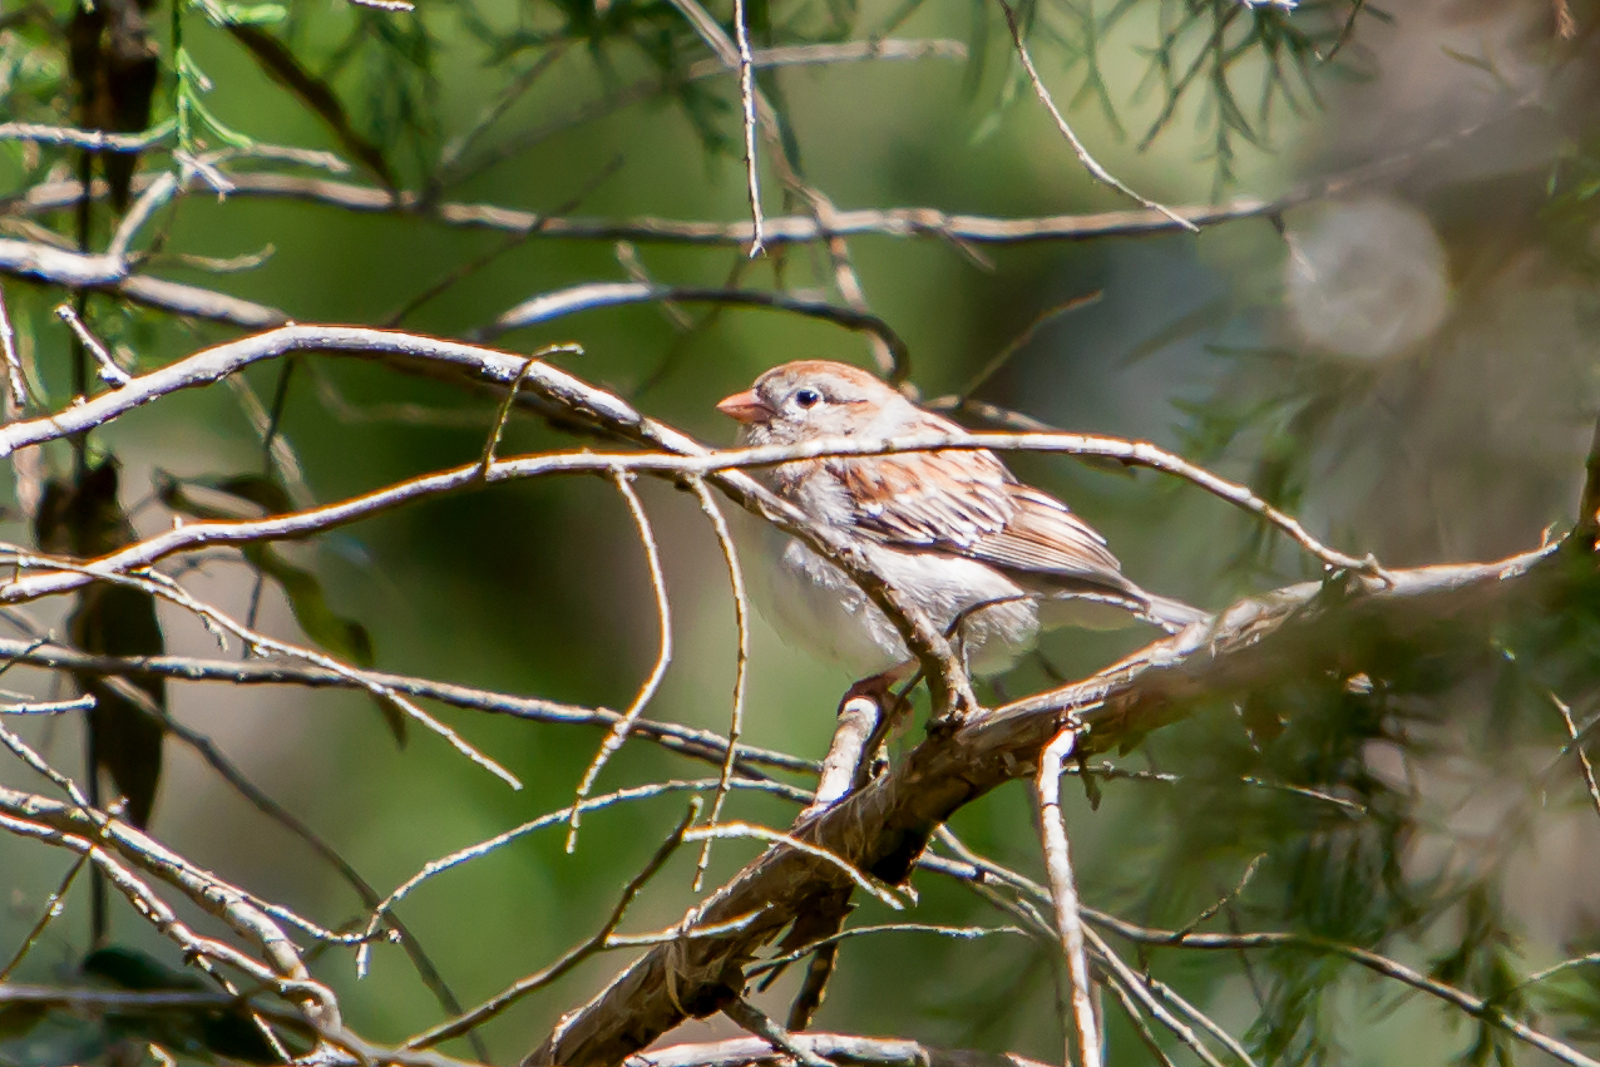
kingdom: Animalia
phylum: Chordata
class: Aves
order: Passeriformes
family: Passerellidae
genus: Spizella
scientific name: Spizella pusilla
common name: Field sparrow
